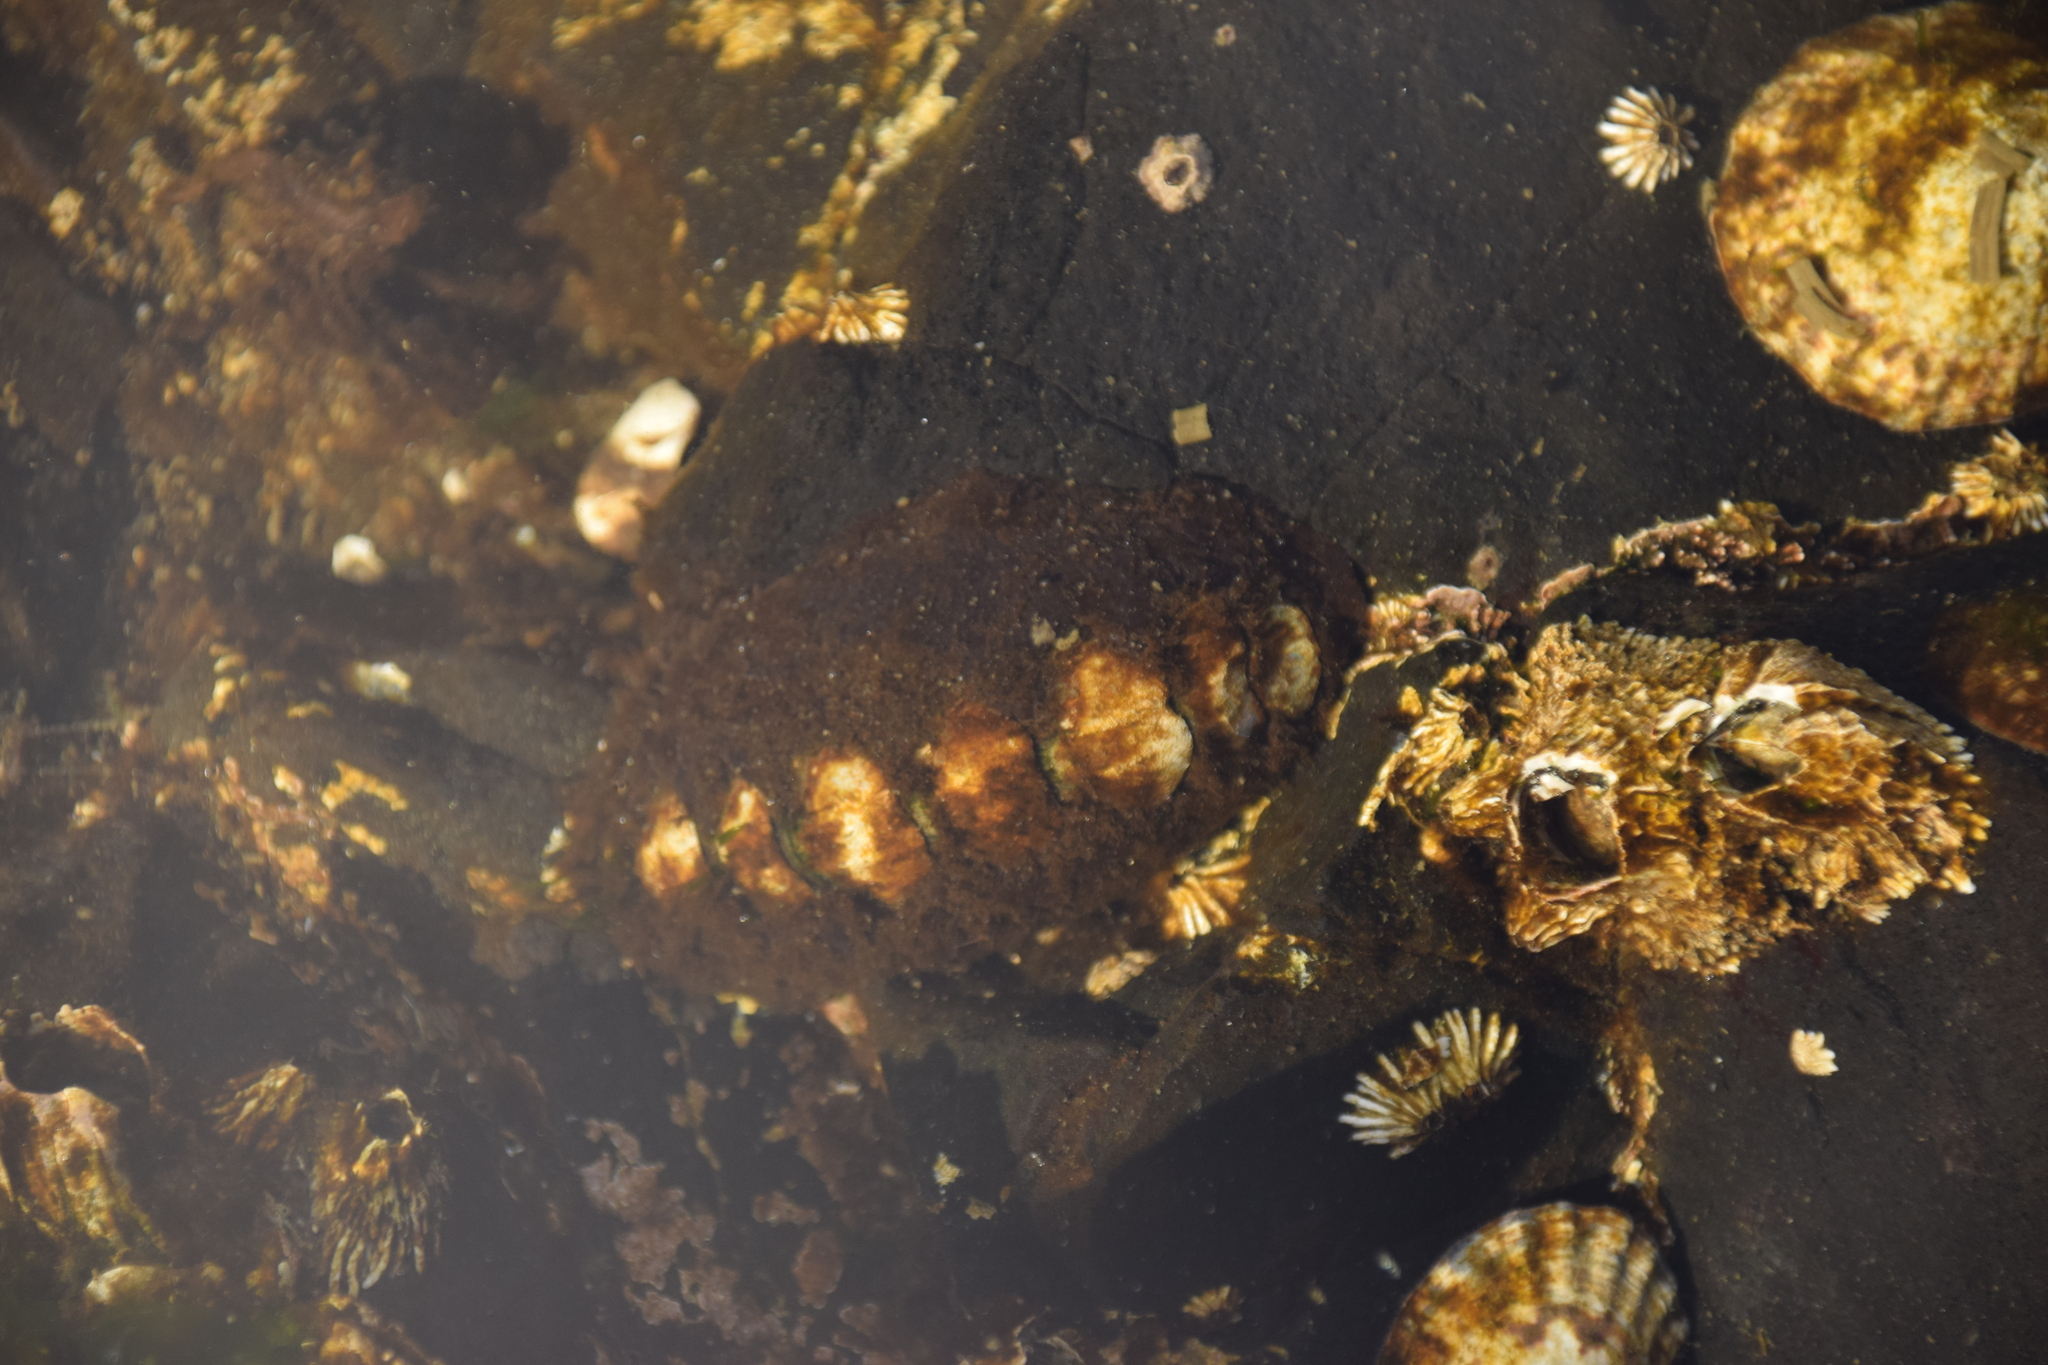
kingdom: Animalia
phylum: Mollusca
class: Polyplacophora
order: Chitonida
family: Mopaliidae
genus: Katharina
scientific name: Katharina tunicata
